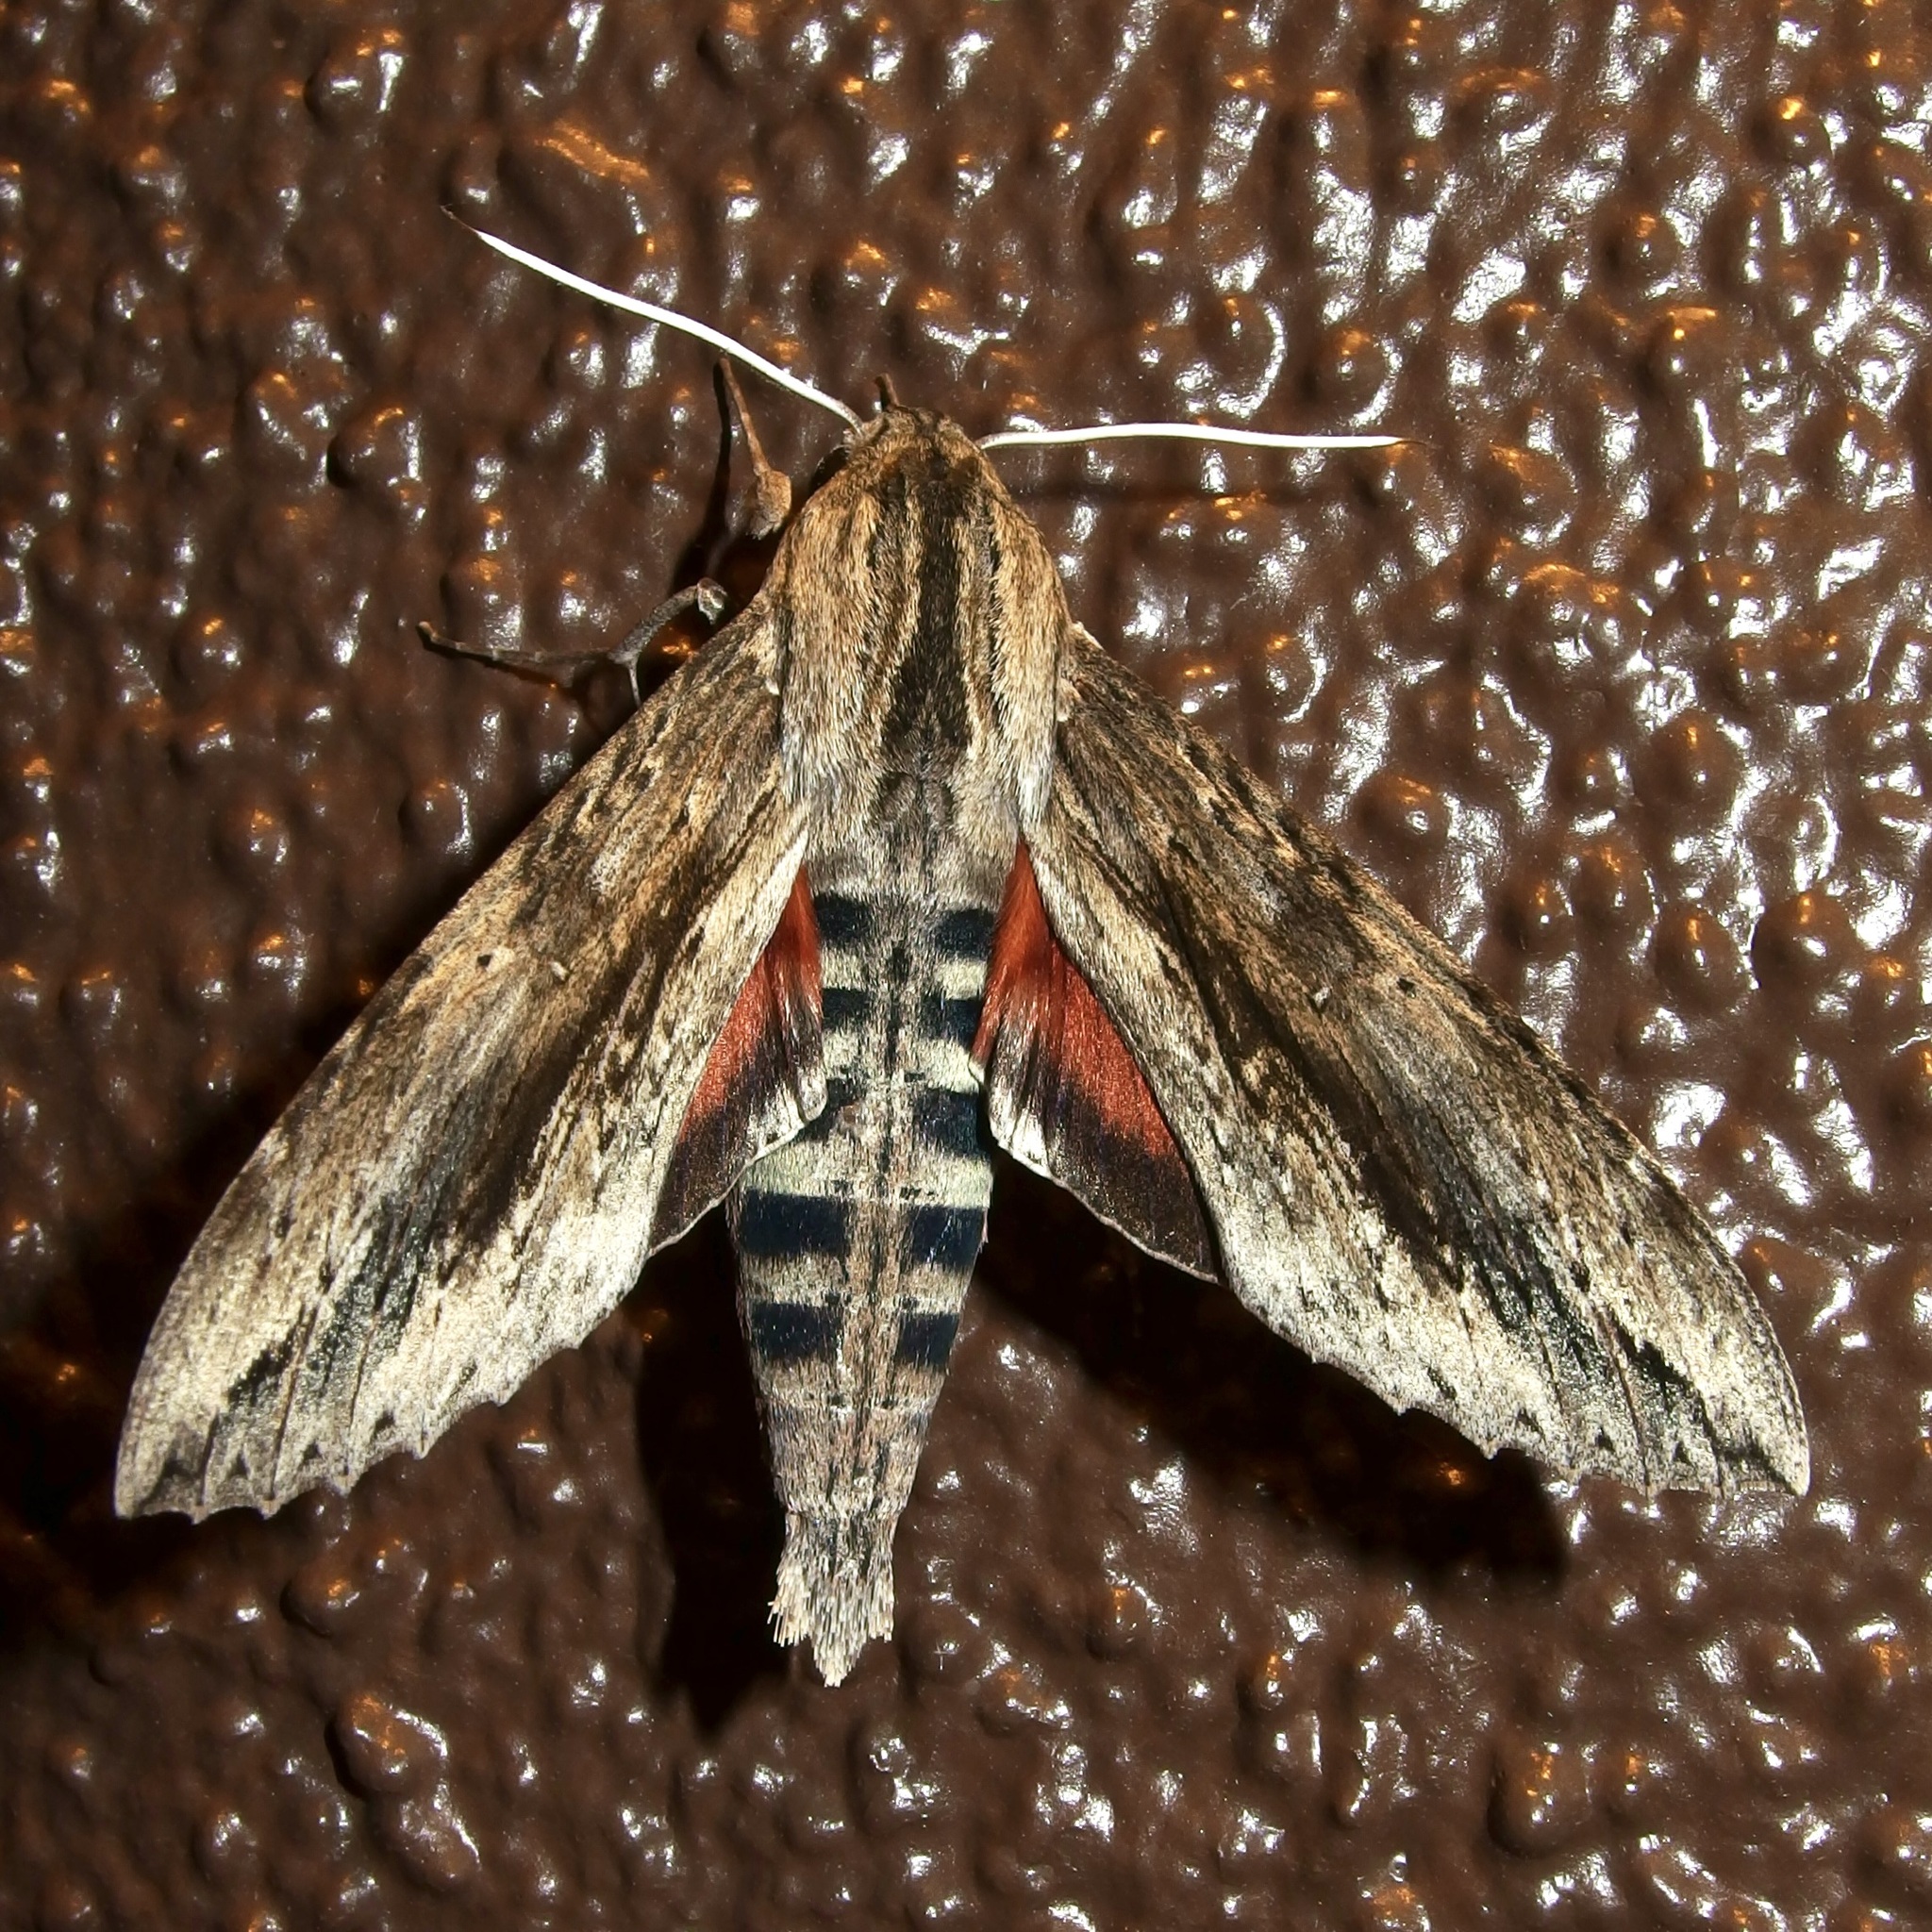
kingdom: Animalia
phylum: Arthropoda
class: Insecta
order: Lepidoptera
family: Sphingidae
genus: Erinnyis
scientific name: Erinnyis ello
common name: Ello sphinx
